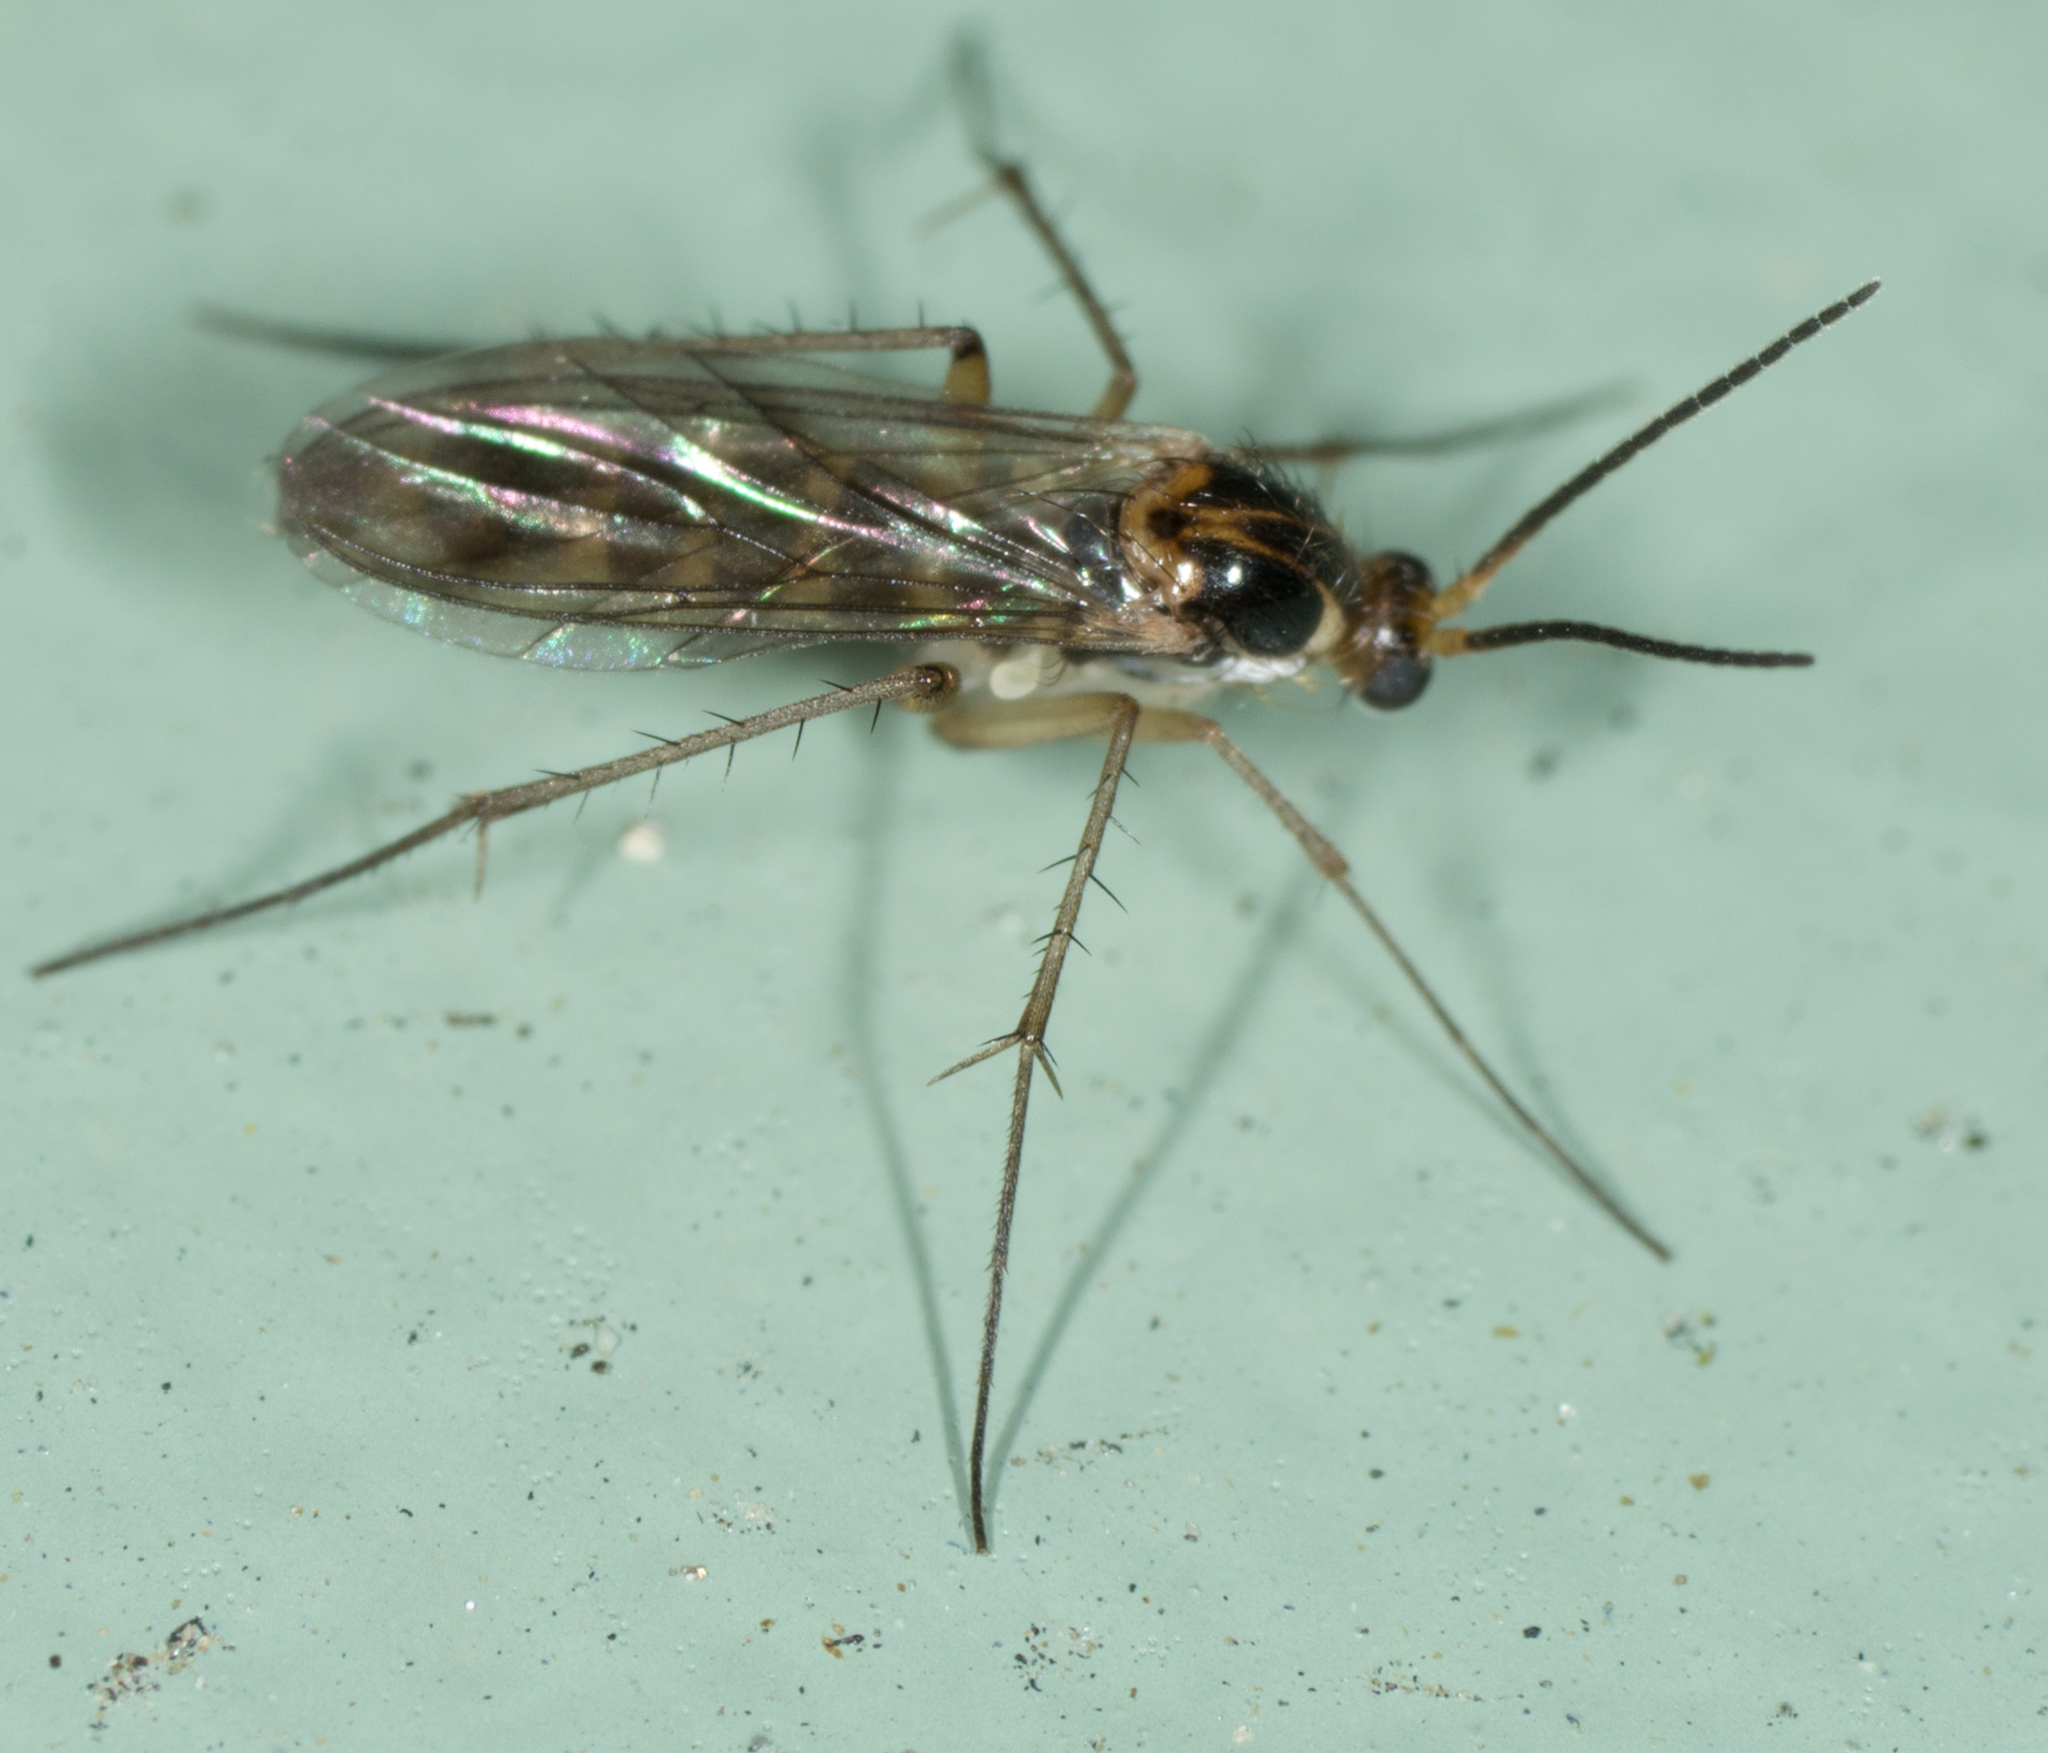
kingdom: Animalia
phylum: Arthropoda
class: Insecta
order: Diptera
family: Mycetophilidae
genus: Leia
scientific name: Leia varia
